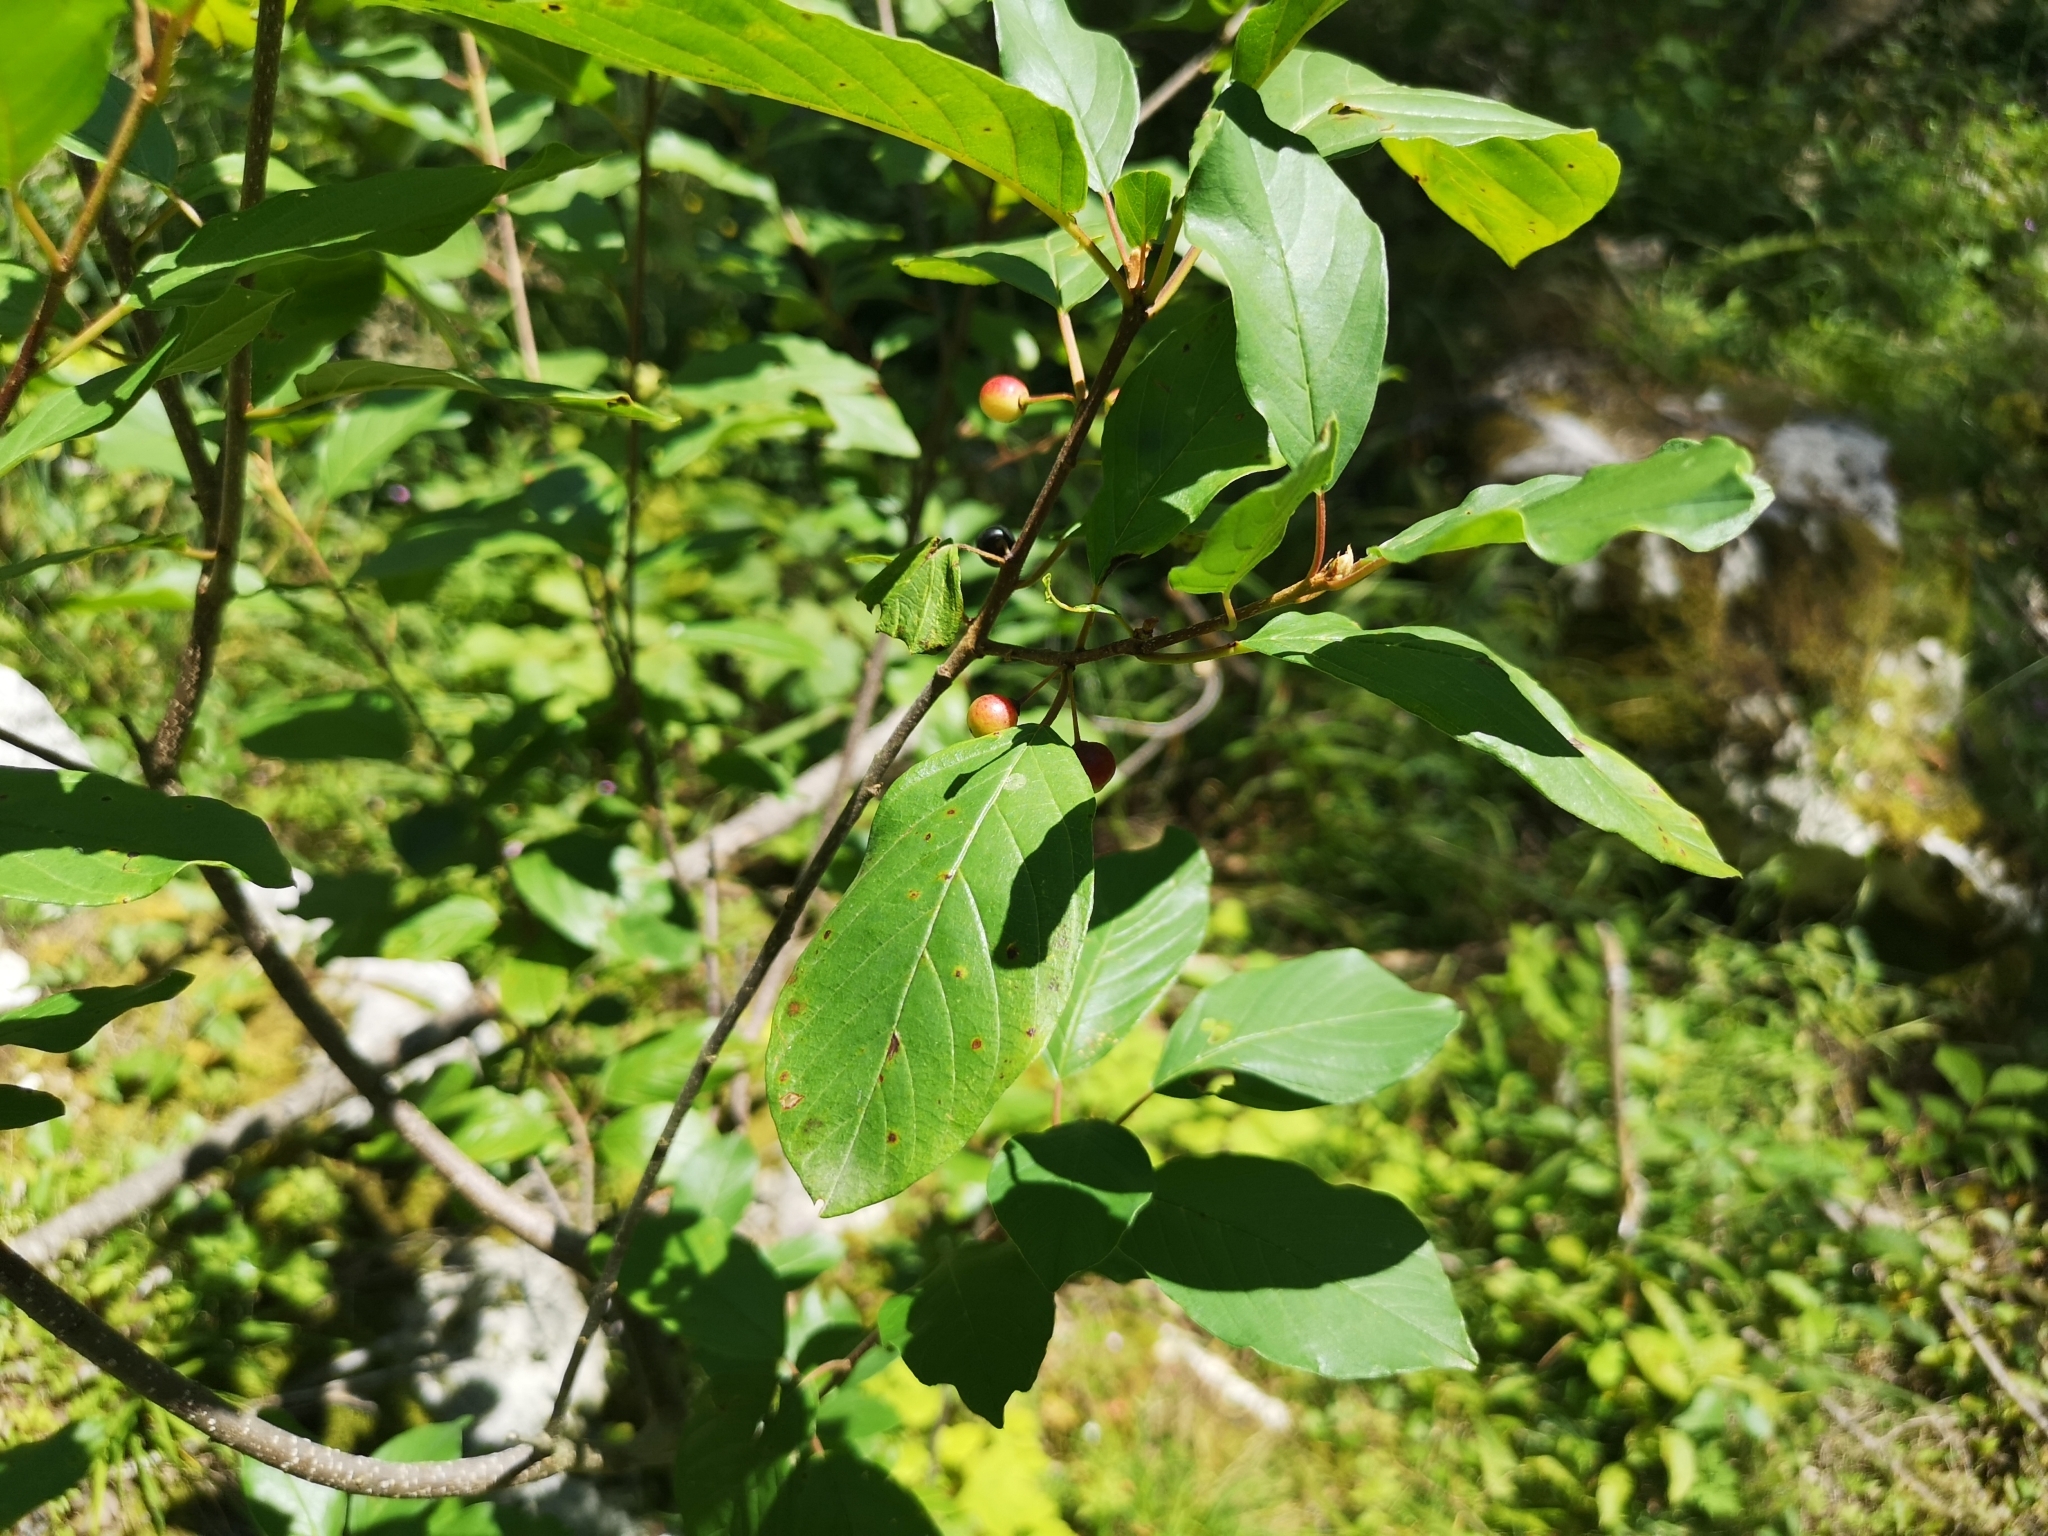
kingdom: Plantae
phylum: Tracheophyta
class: Magnoliopsida
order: Rosales
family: Rhamnaceae
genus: Frangula
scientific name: Frangula alnus
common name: Alder buckthorn
